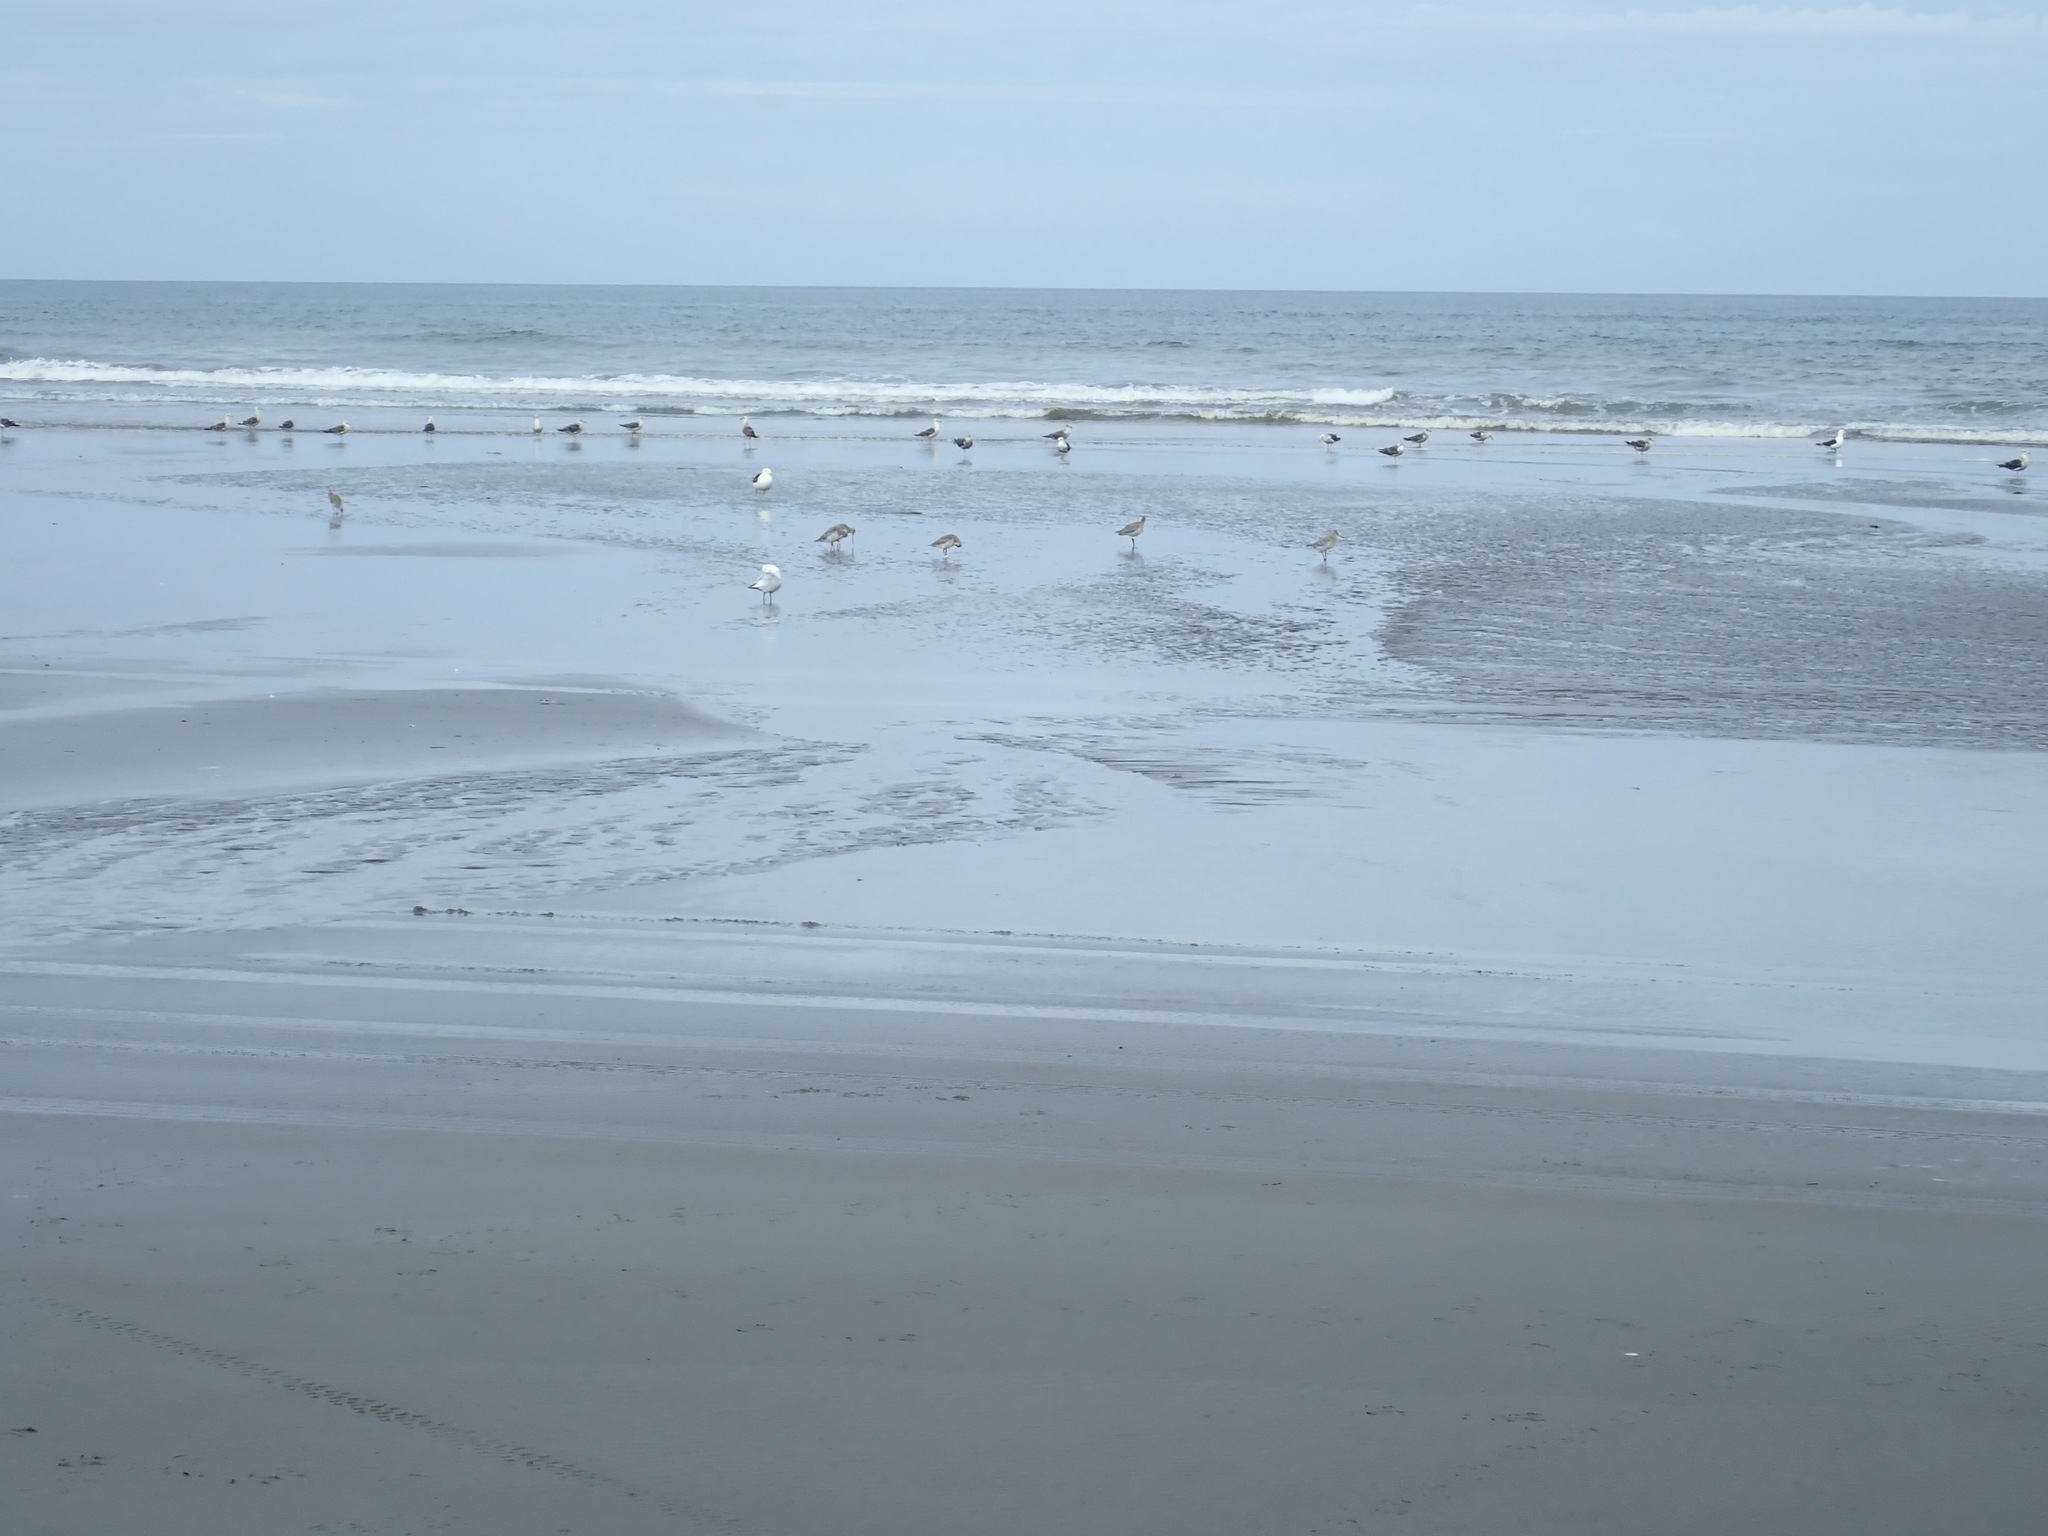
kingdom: Animalia
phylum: Chordata
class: Aves
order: Charadriiformes
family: Scolopacidae
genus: Limosa
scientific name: Limosa lapponica
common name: Bar-tailed godwit
